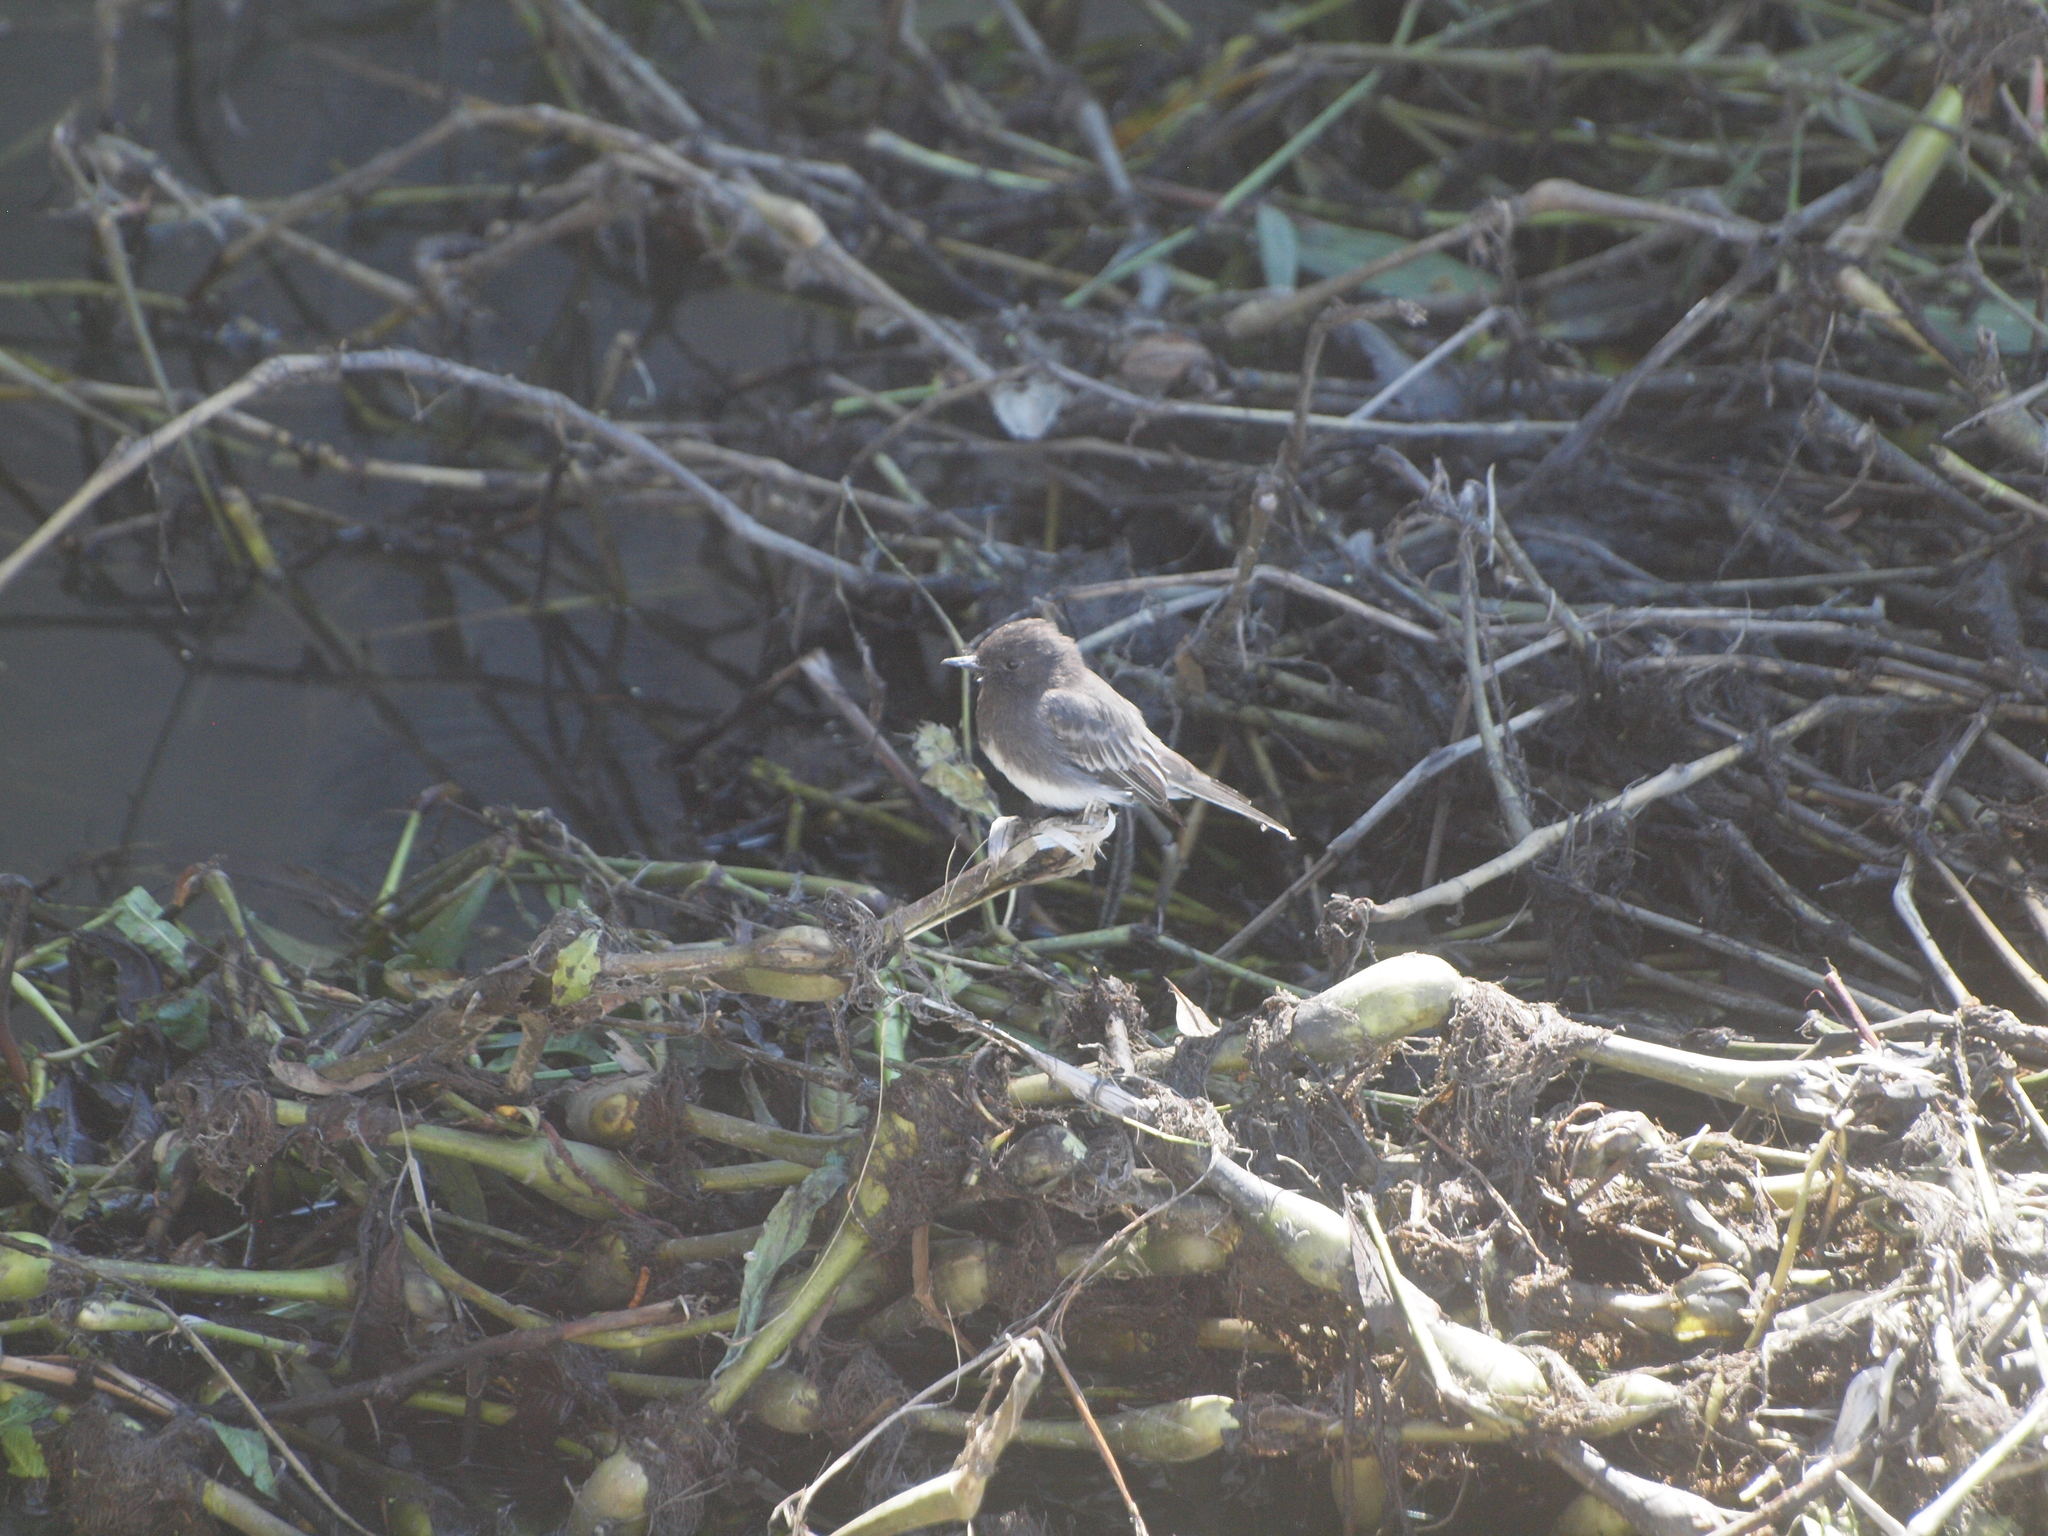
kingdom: Animalia
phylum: Chordata
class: Aves
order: Passeriformes
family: Tyrannidae
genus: Sayornis
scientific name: Sayornis nigricans
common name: Black phoebe
